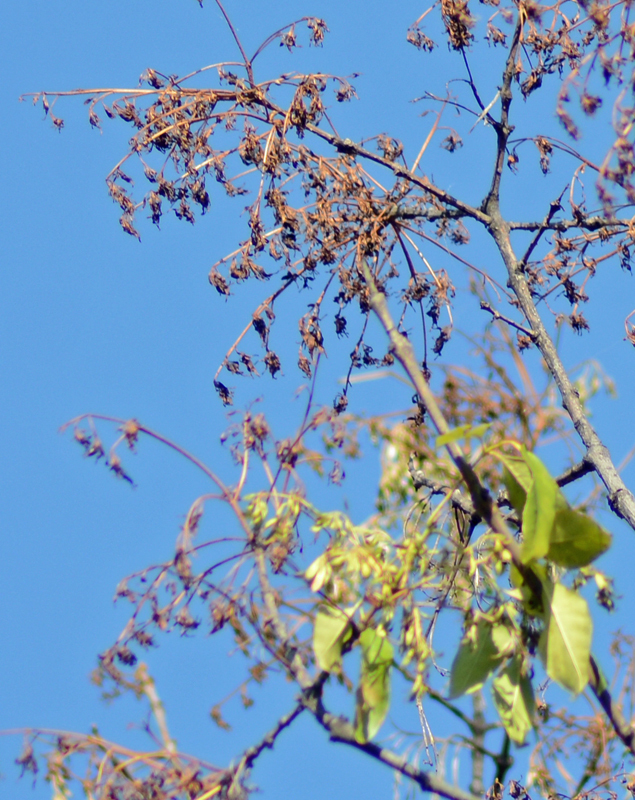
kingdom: Plantae
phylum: Tracheophyta
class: Magnoliopsida
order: Lamiales
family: Oleaceae
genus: Fraxinus
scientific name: Fraxinus uhdei
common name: Shamel ash
